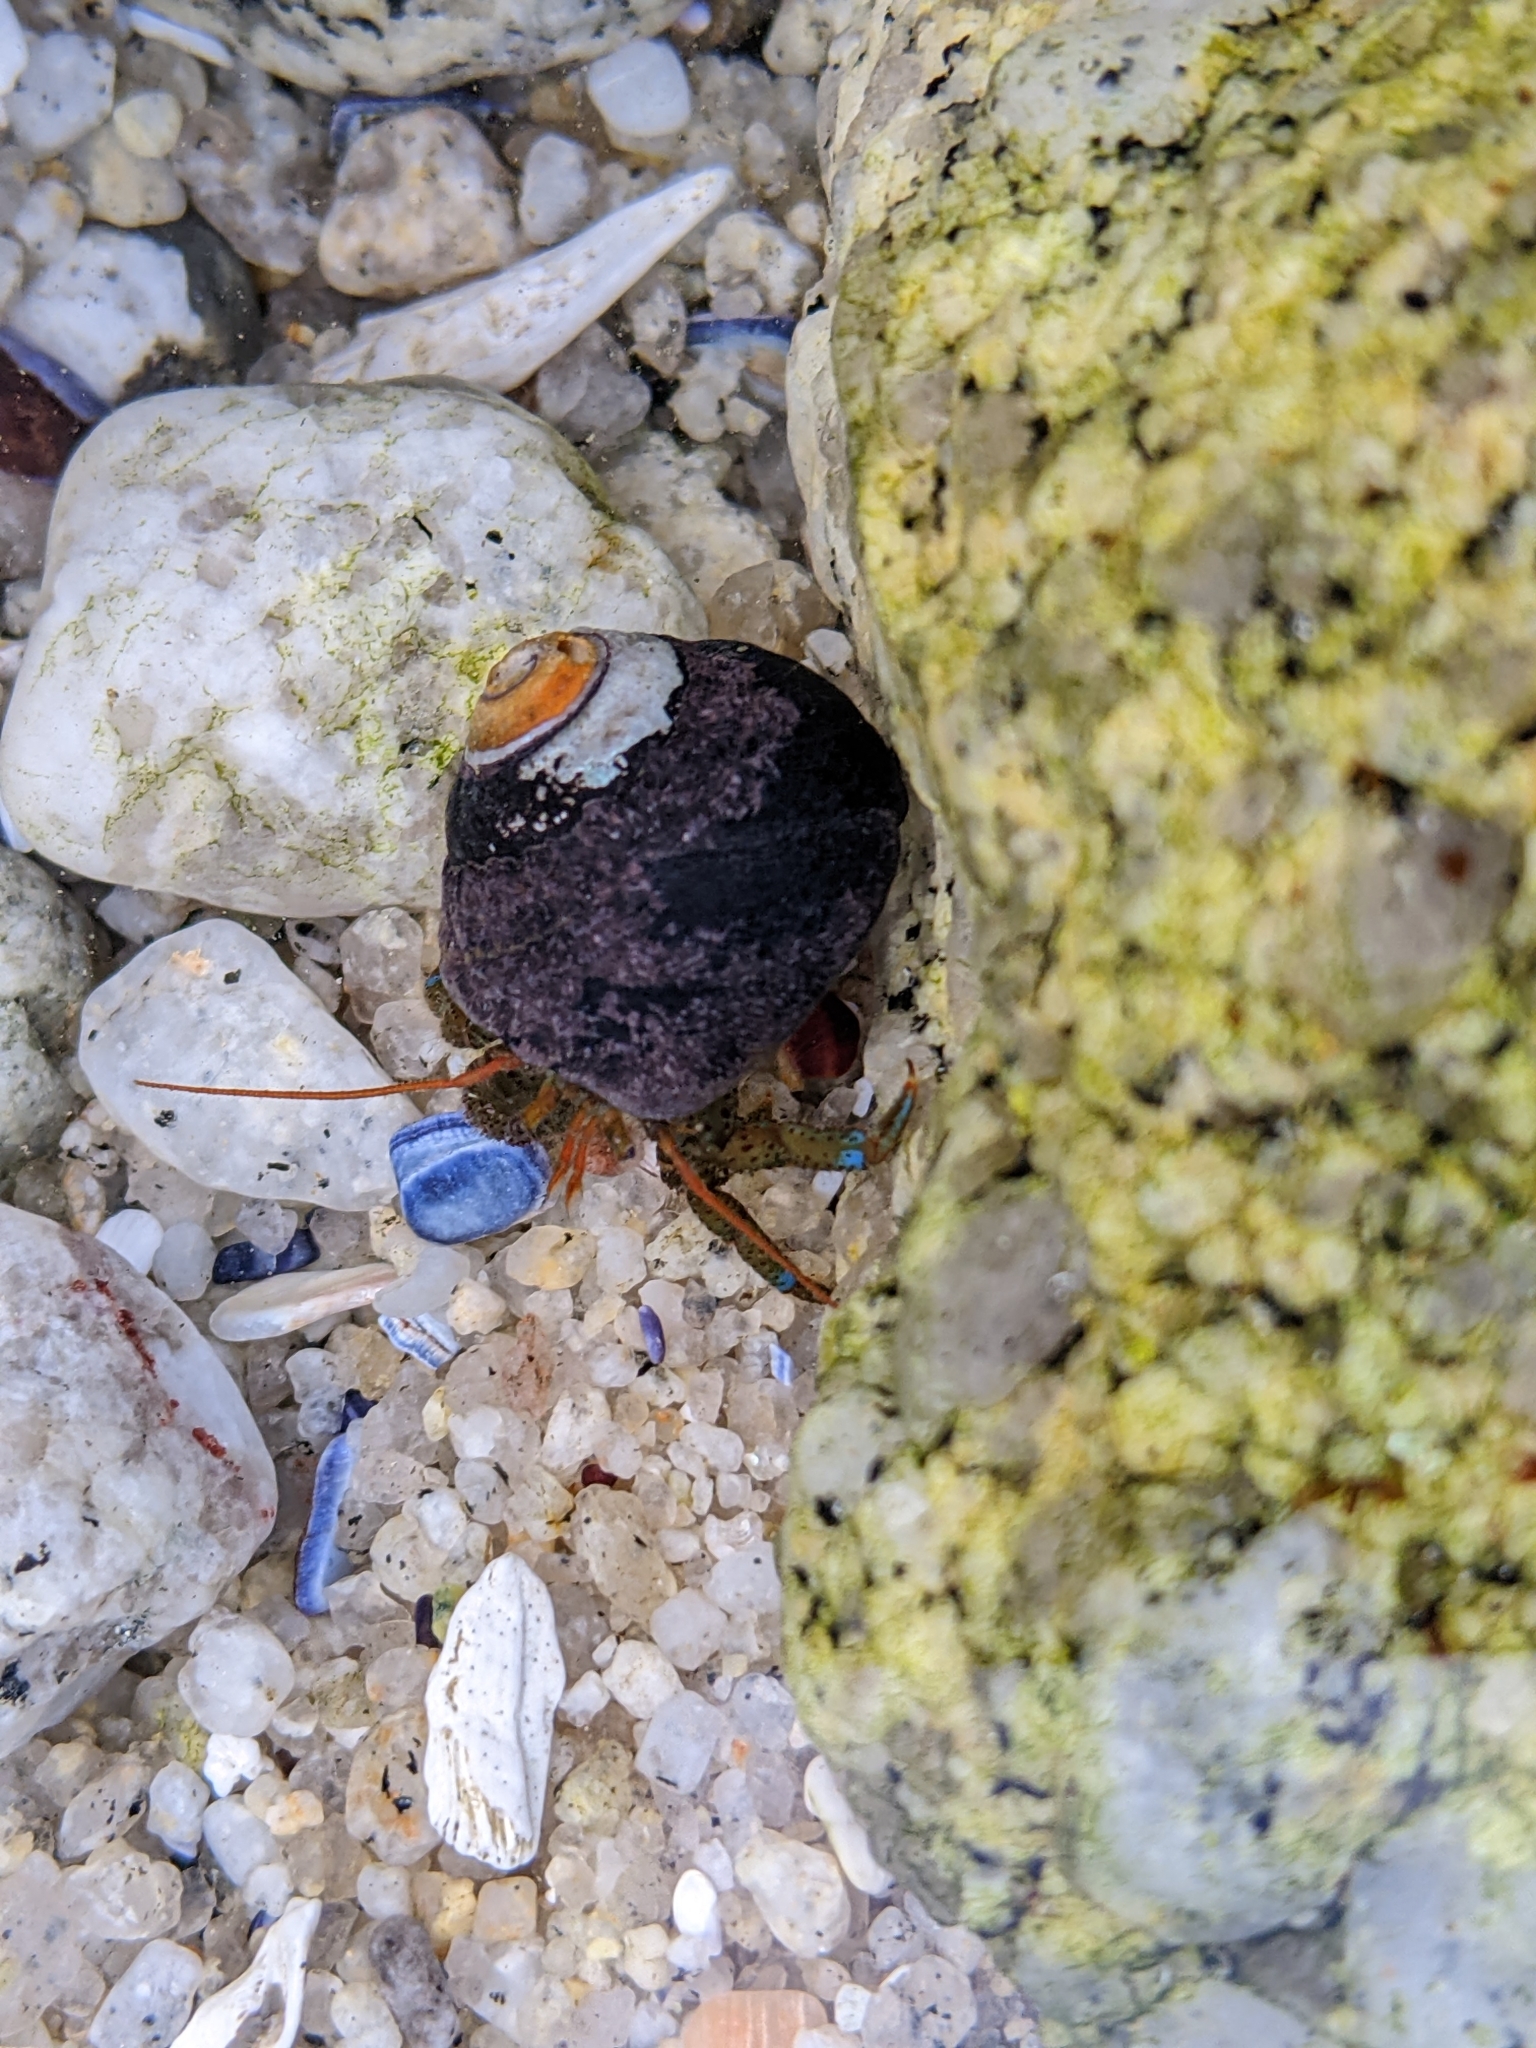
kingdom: Animalia
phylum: Arthropoda
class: Malacostraca
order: Decapoda
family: Paguridae
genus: Pagurus
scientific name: Pagurus samuelis
